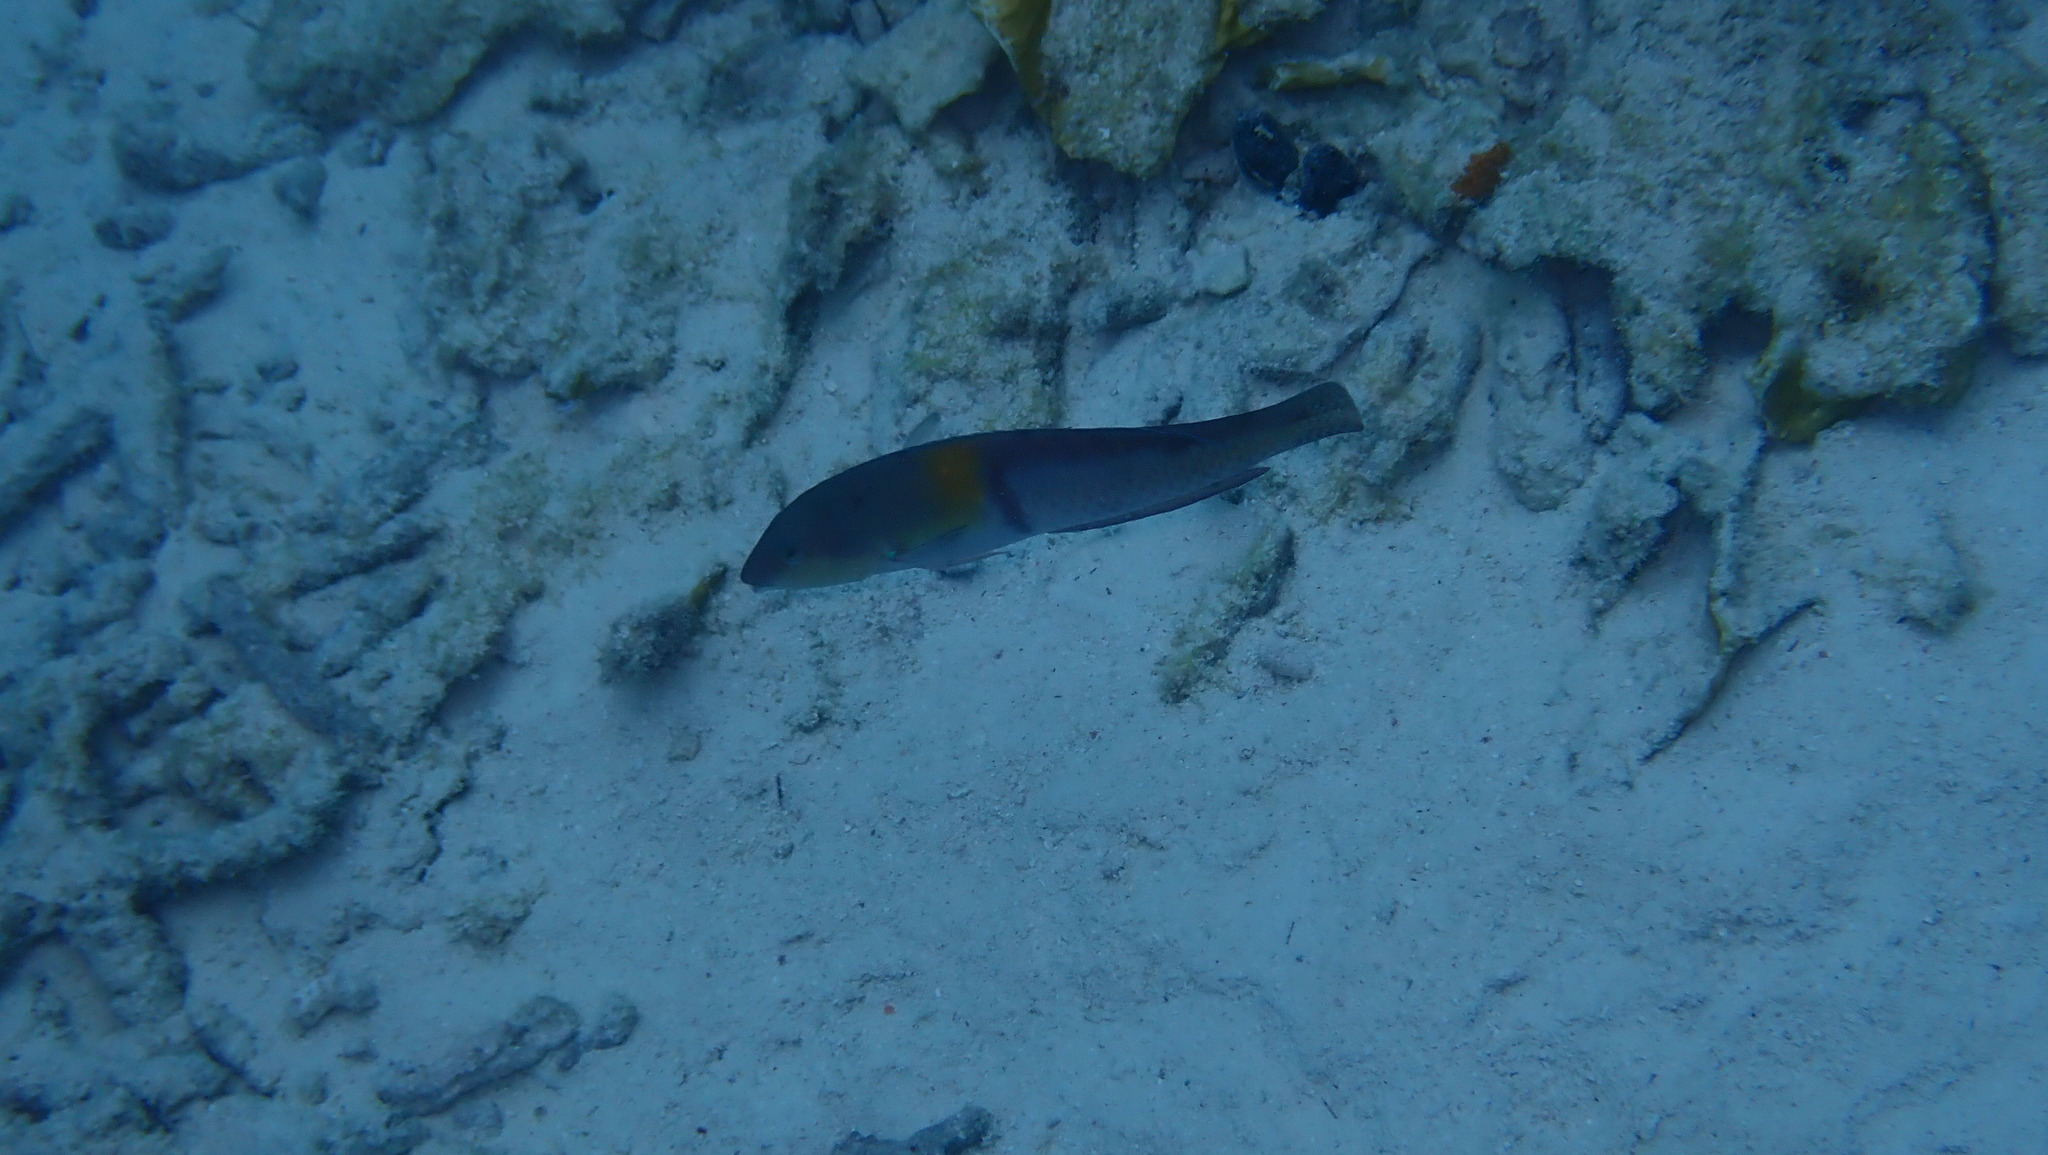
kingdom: Animalia
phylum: Chordata
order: Perciformes
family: Labridae
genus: Halichoeres
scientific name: Halichoeres garnoti
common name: Yellowhead wrasse
